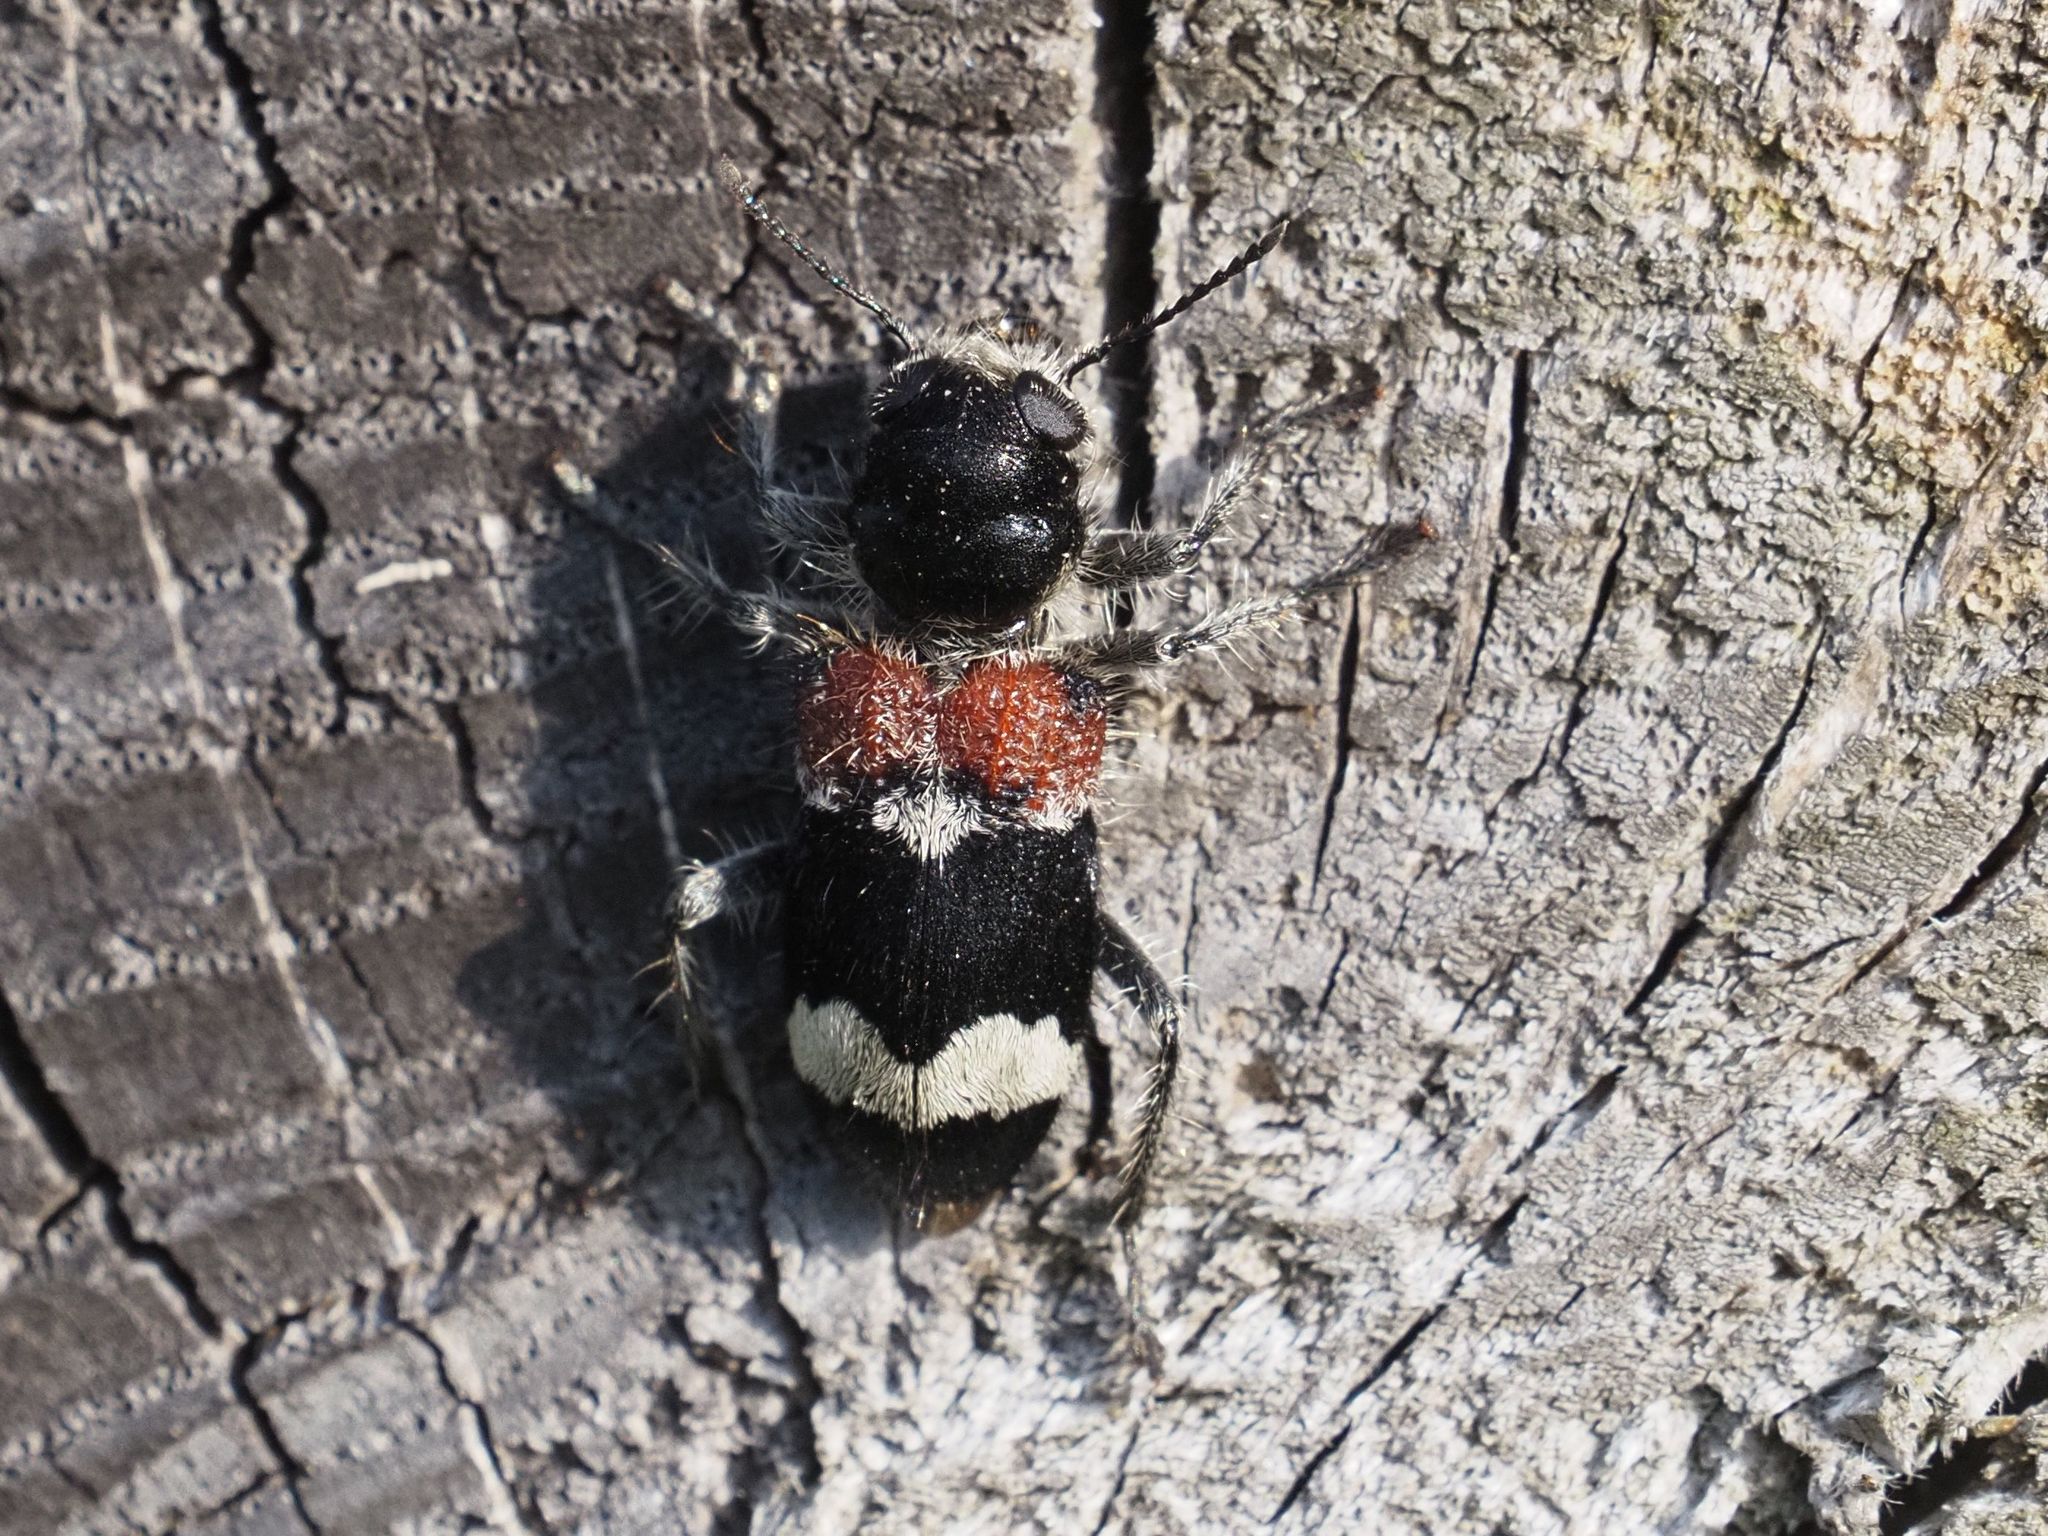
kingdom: Animalia
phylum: Arthropoda
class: Insecta
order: Coleoptera
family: Cleridae
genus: Clerus
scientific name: Clerus mutillarius
